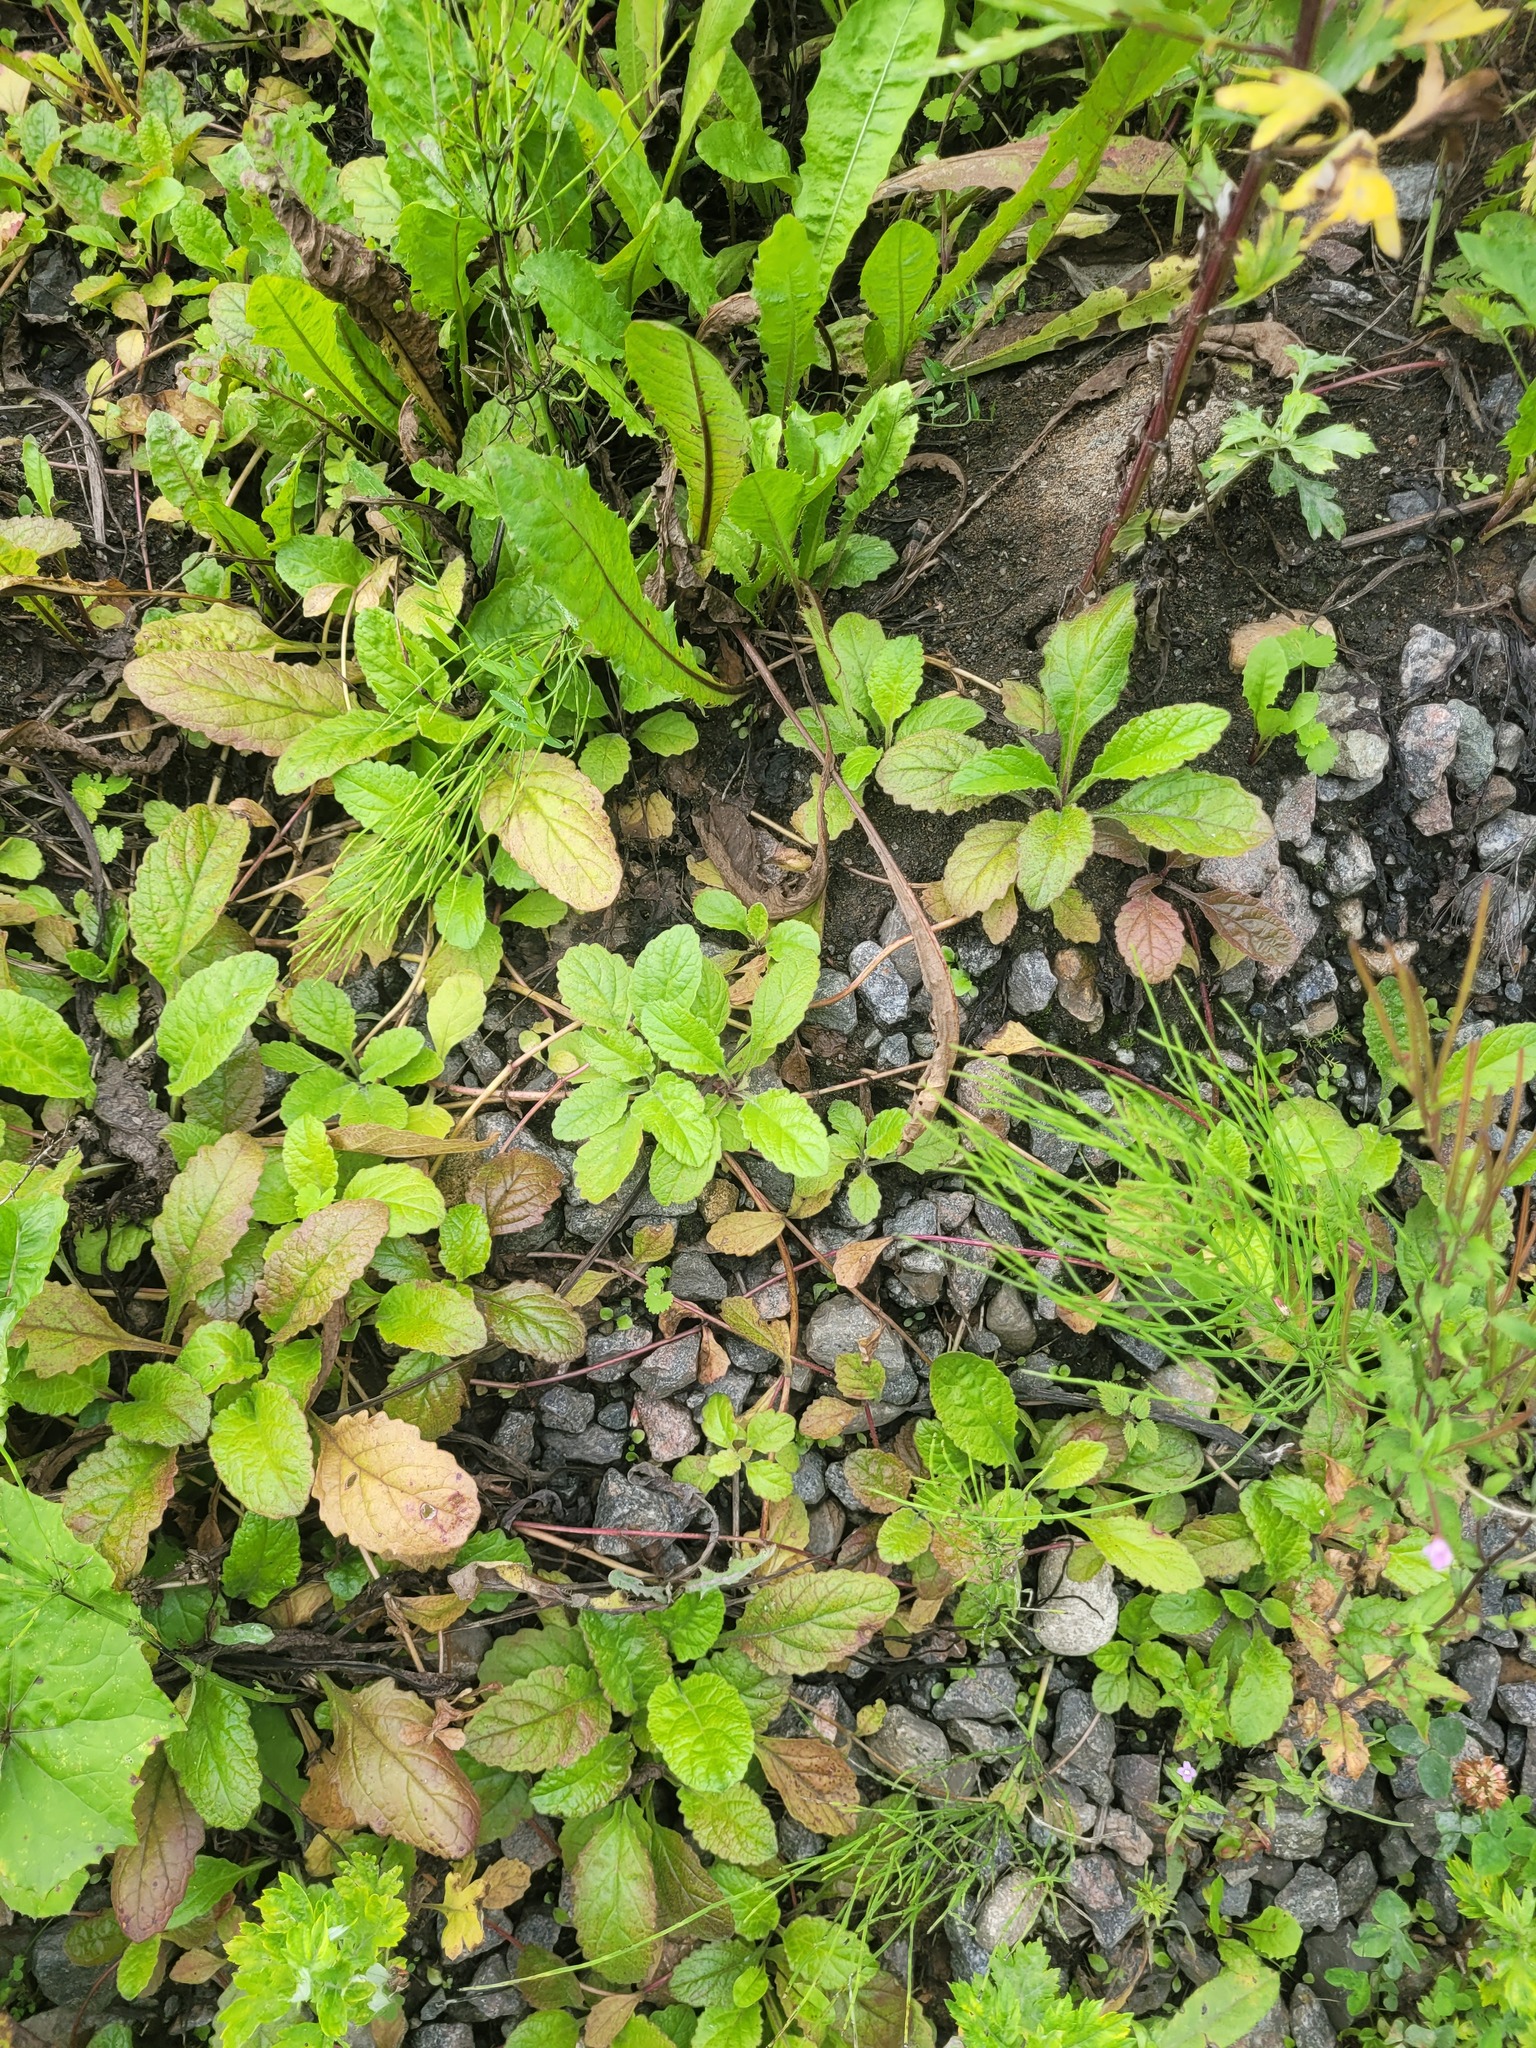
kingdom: Plantae
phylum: Tracheophyta
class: Magnoliopsida
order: Lamiales
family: Lamiaceae
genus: Ajuga
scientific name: Ajuga reptans
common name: Bugle
